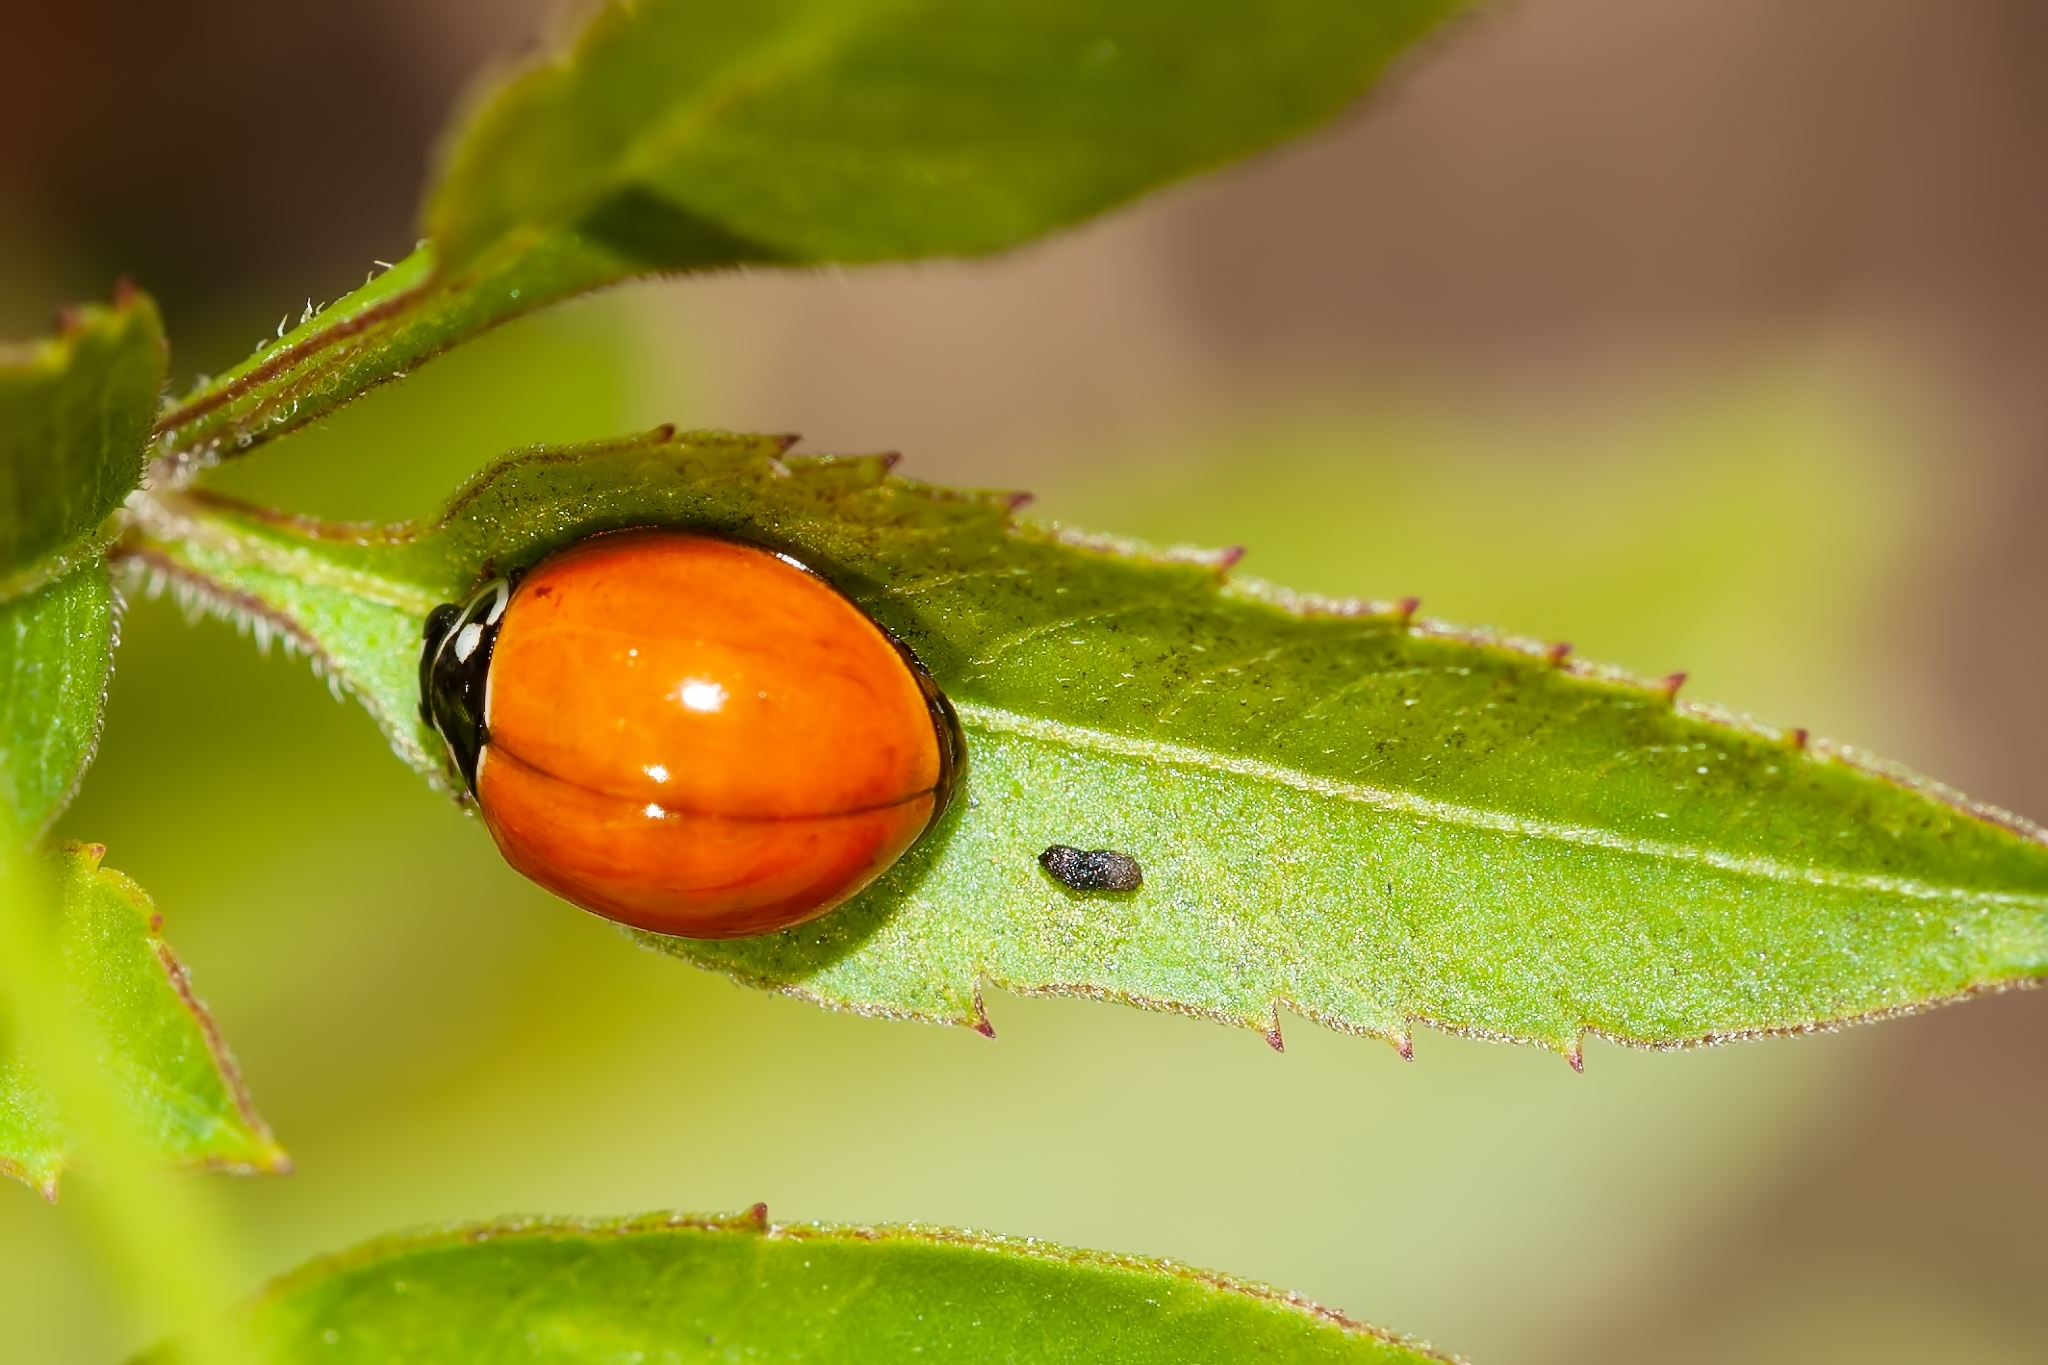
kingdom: Animalia
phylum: Arthropoda
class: Insecta
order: Coleoptera
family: Coccinellidae
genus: Cycloneda
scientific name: Cycloneda sanguinea
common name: Ladybird beetle
